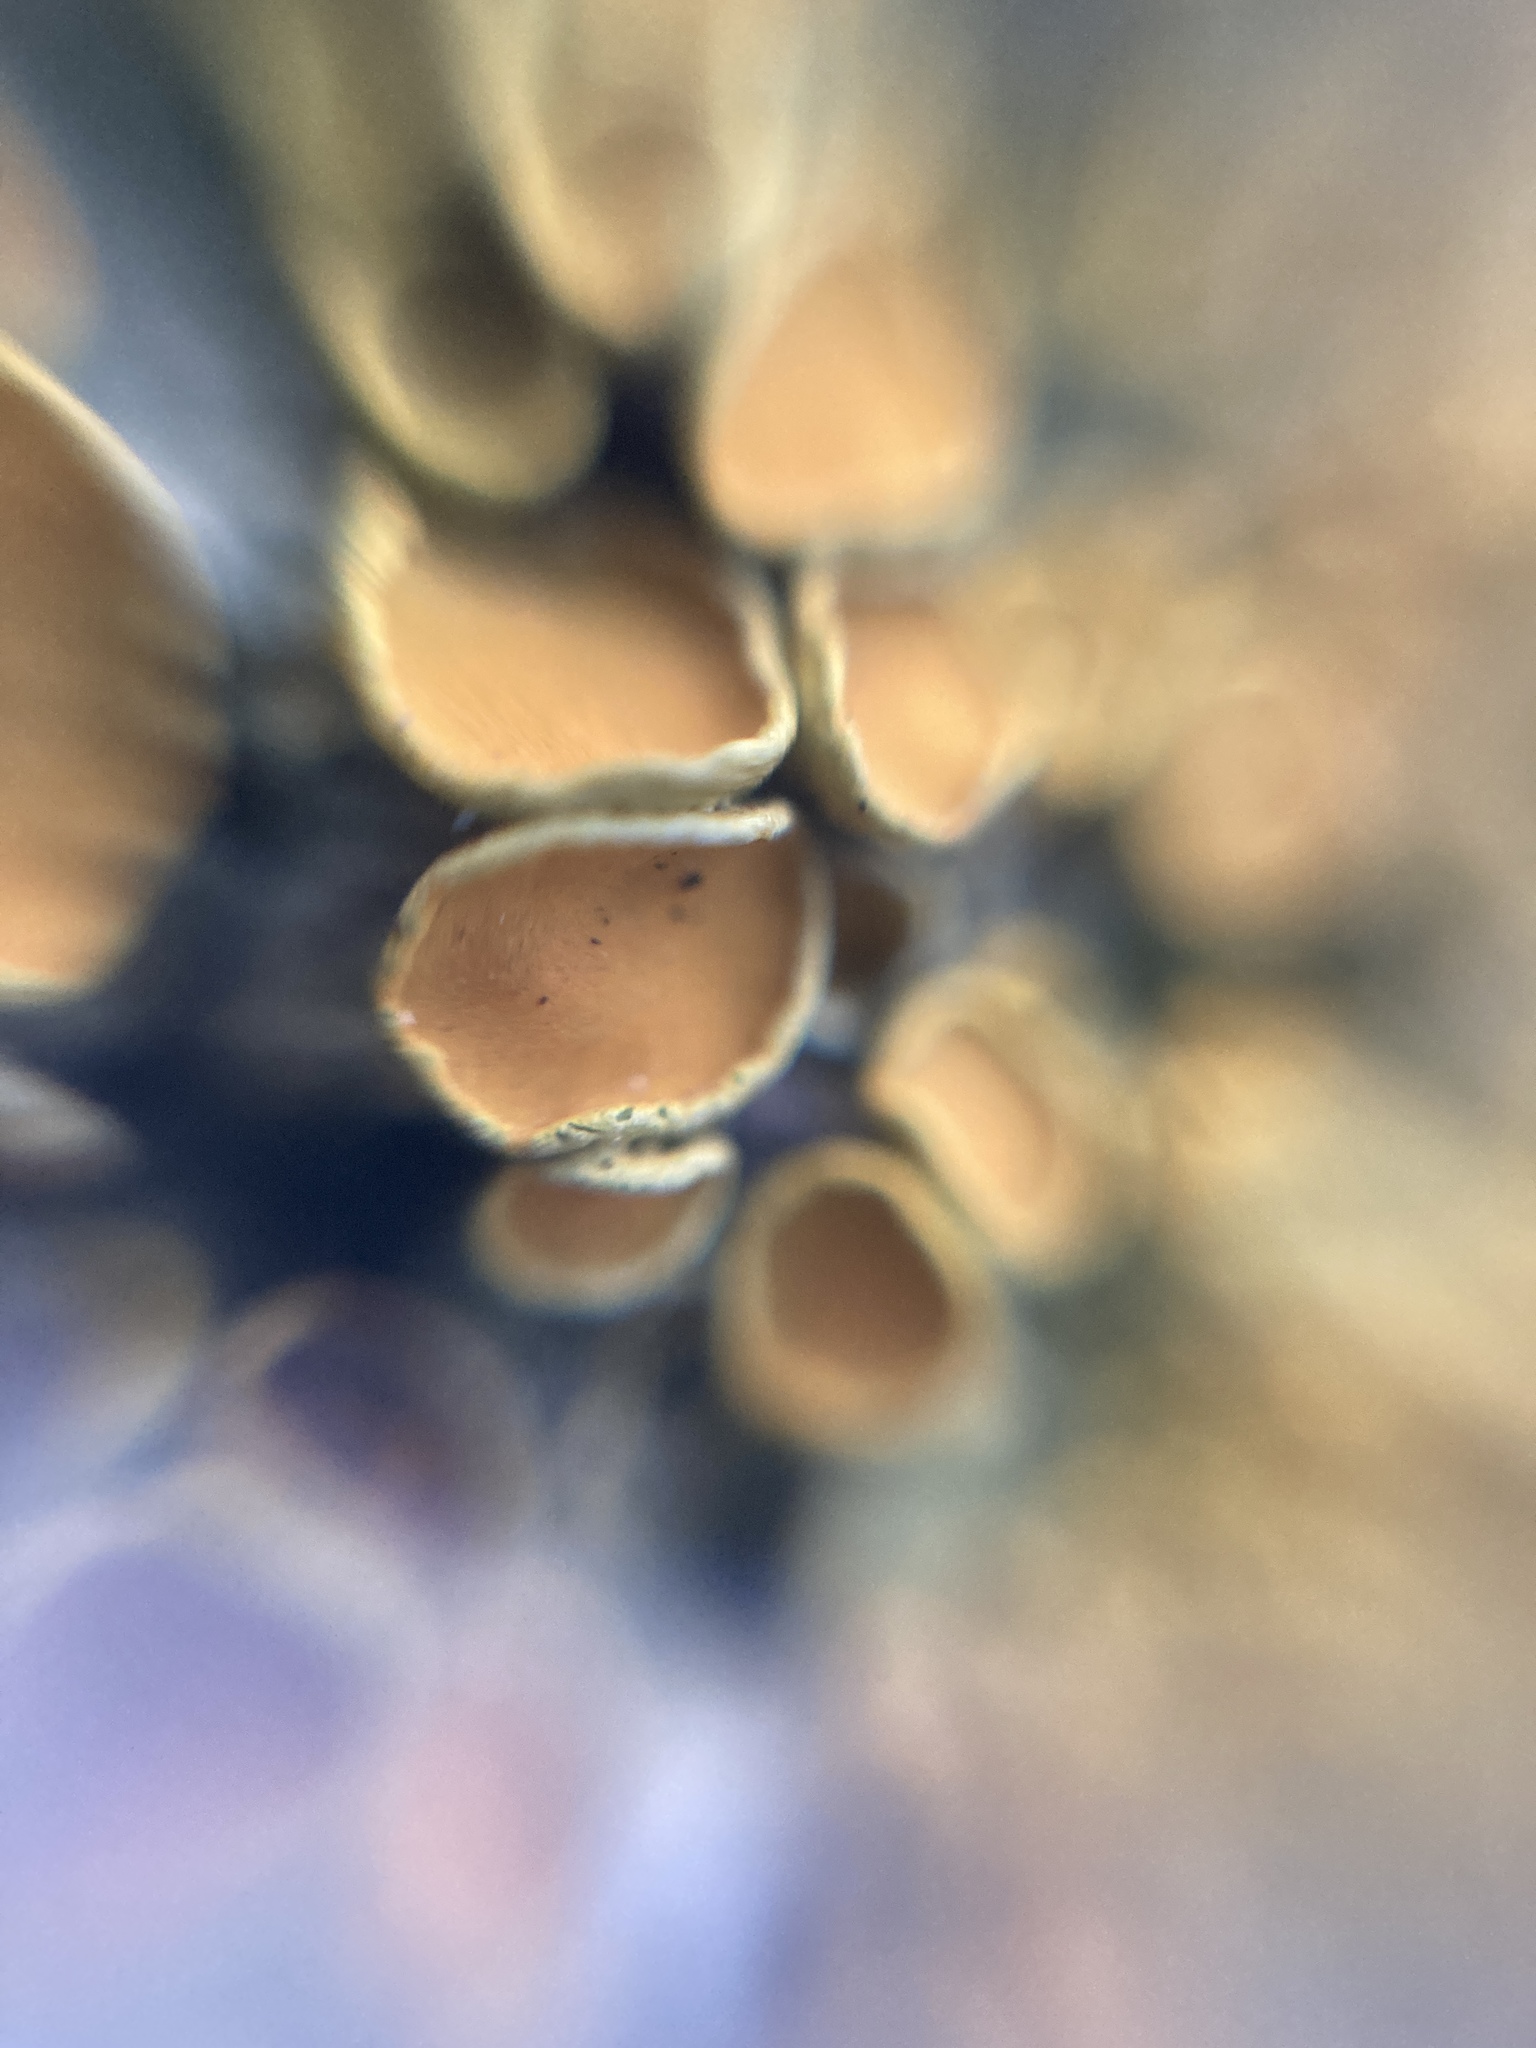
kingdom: Fungi
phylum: Ascomycota
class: Lecanoromycetes
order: Teloschistales
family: Teloschistaceae
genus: Xanthoria
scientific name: Xanthoria parietina
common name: Common orange lichen
